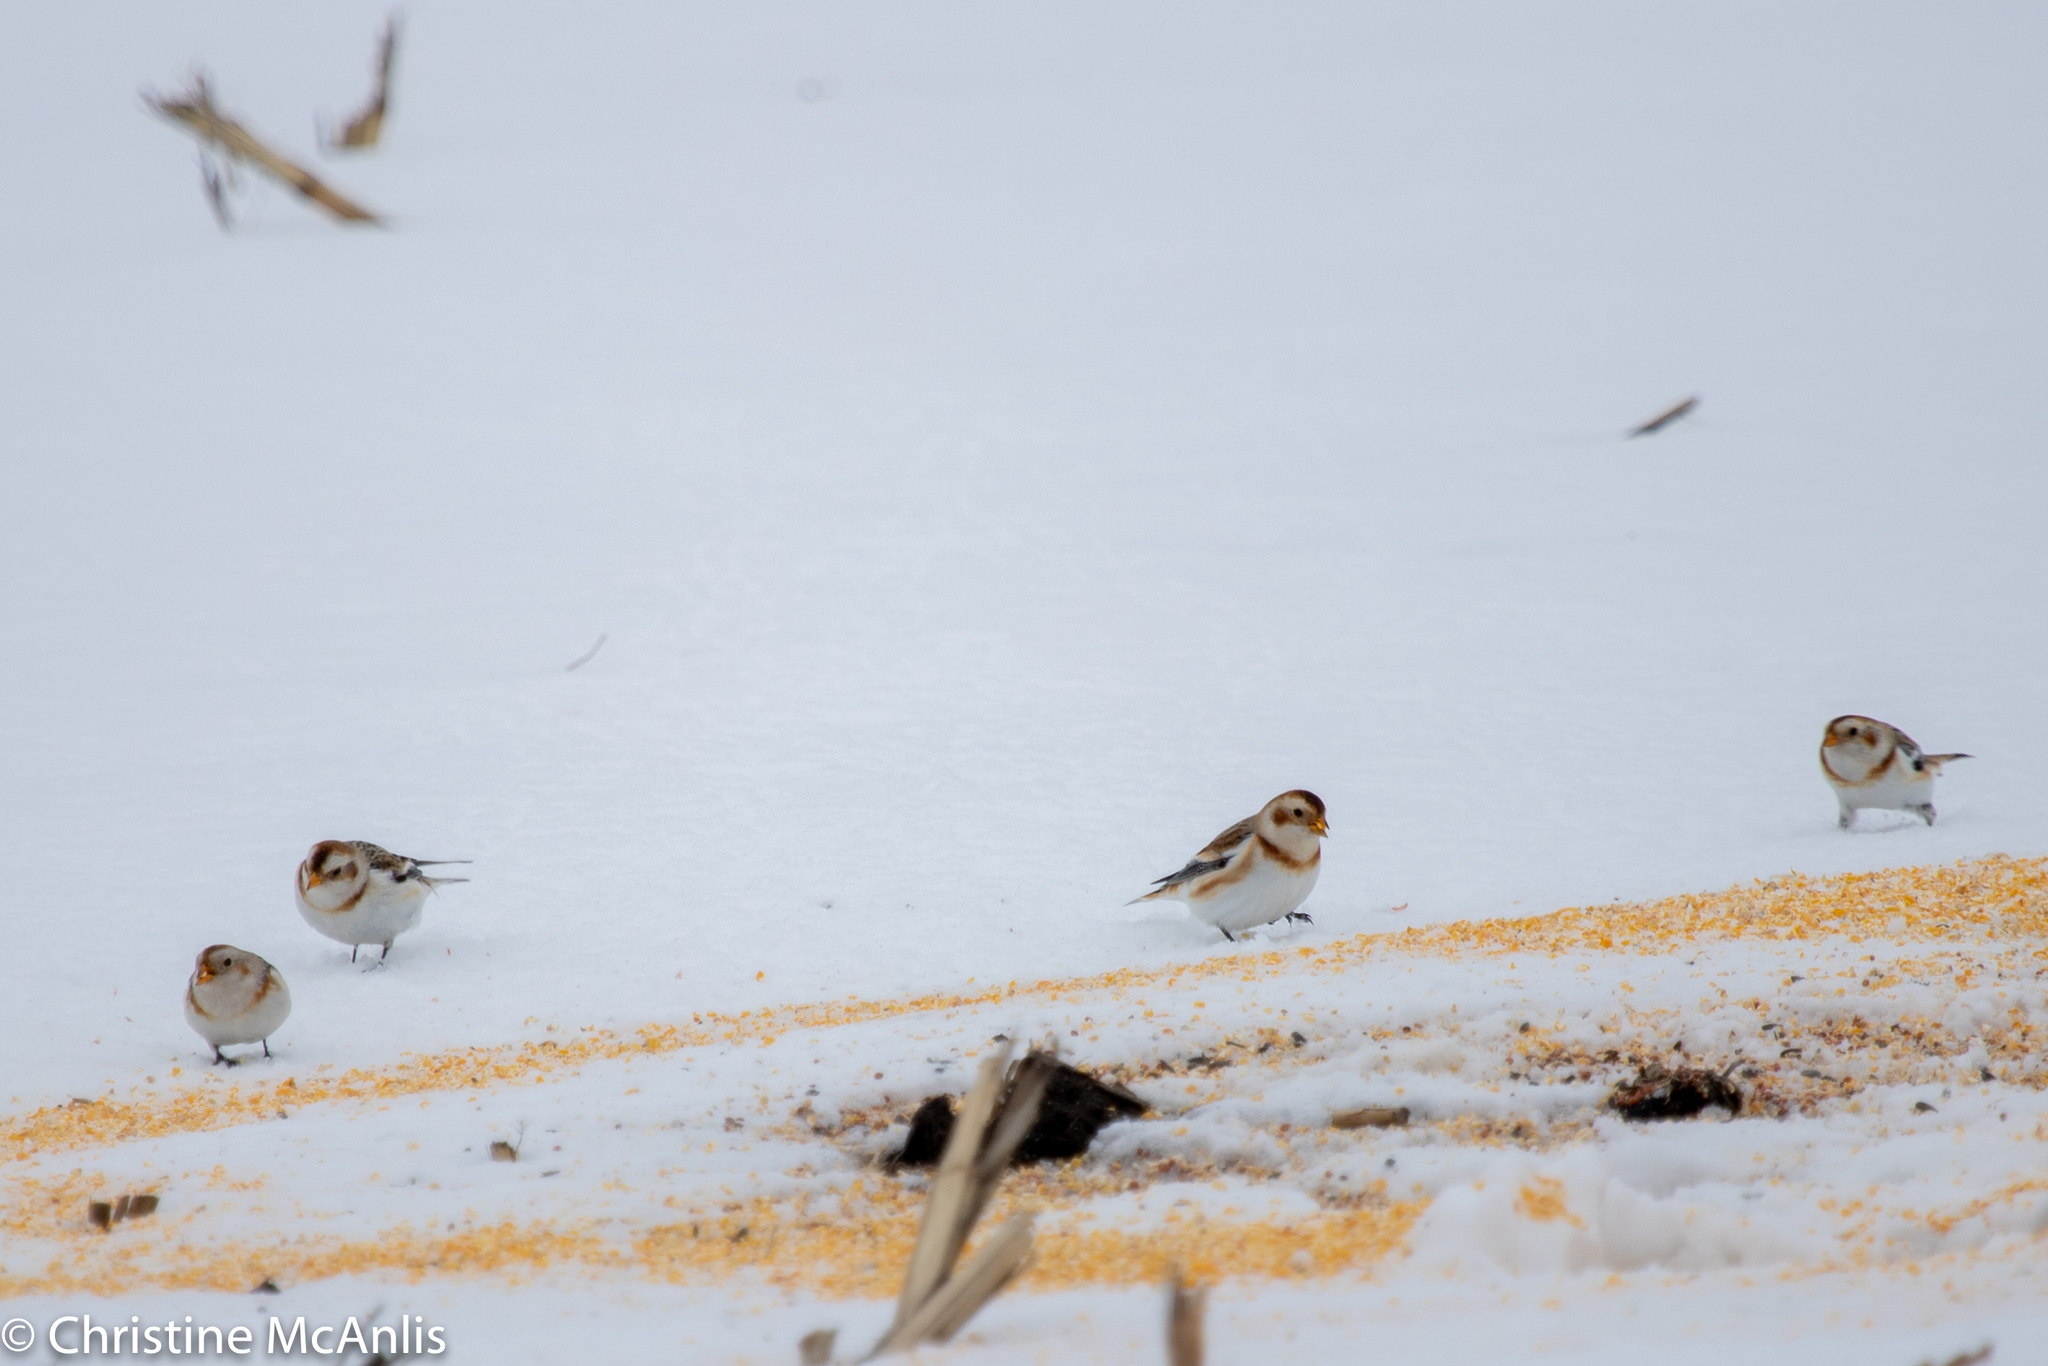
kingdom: Animalia
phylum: Chordata
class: Aves
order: Passeriformes
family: Calcariidae
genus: Plectrophenax
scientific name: Plectrophenax nivalis
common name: Snow bunting
